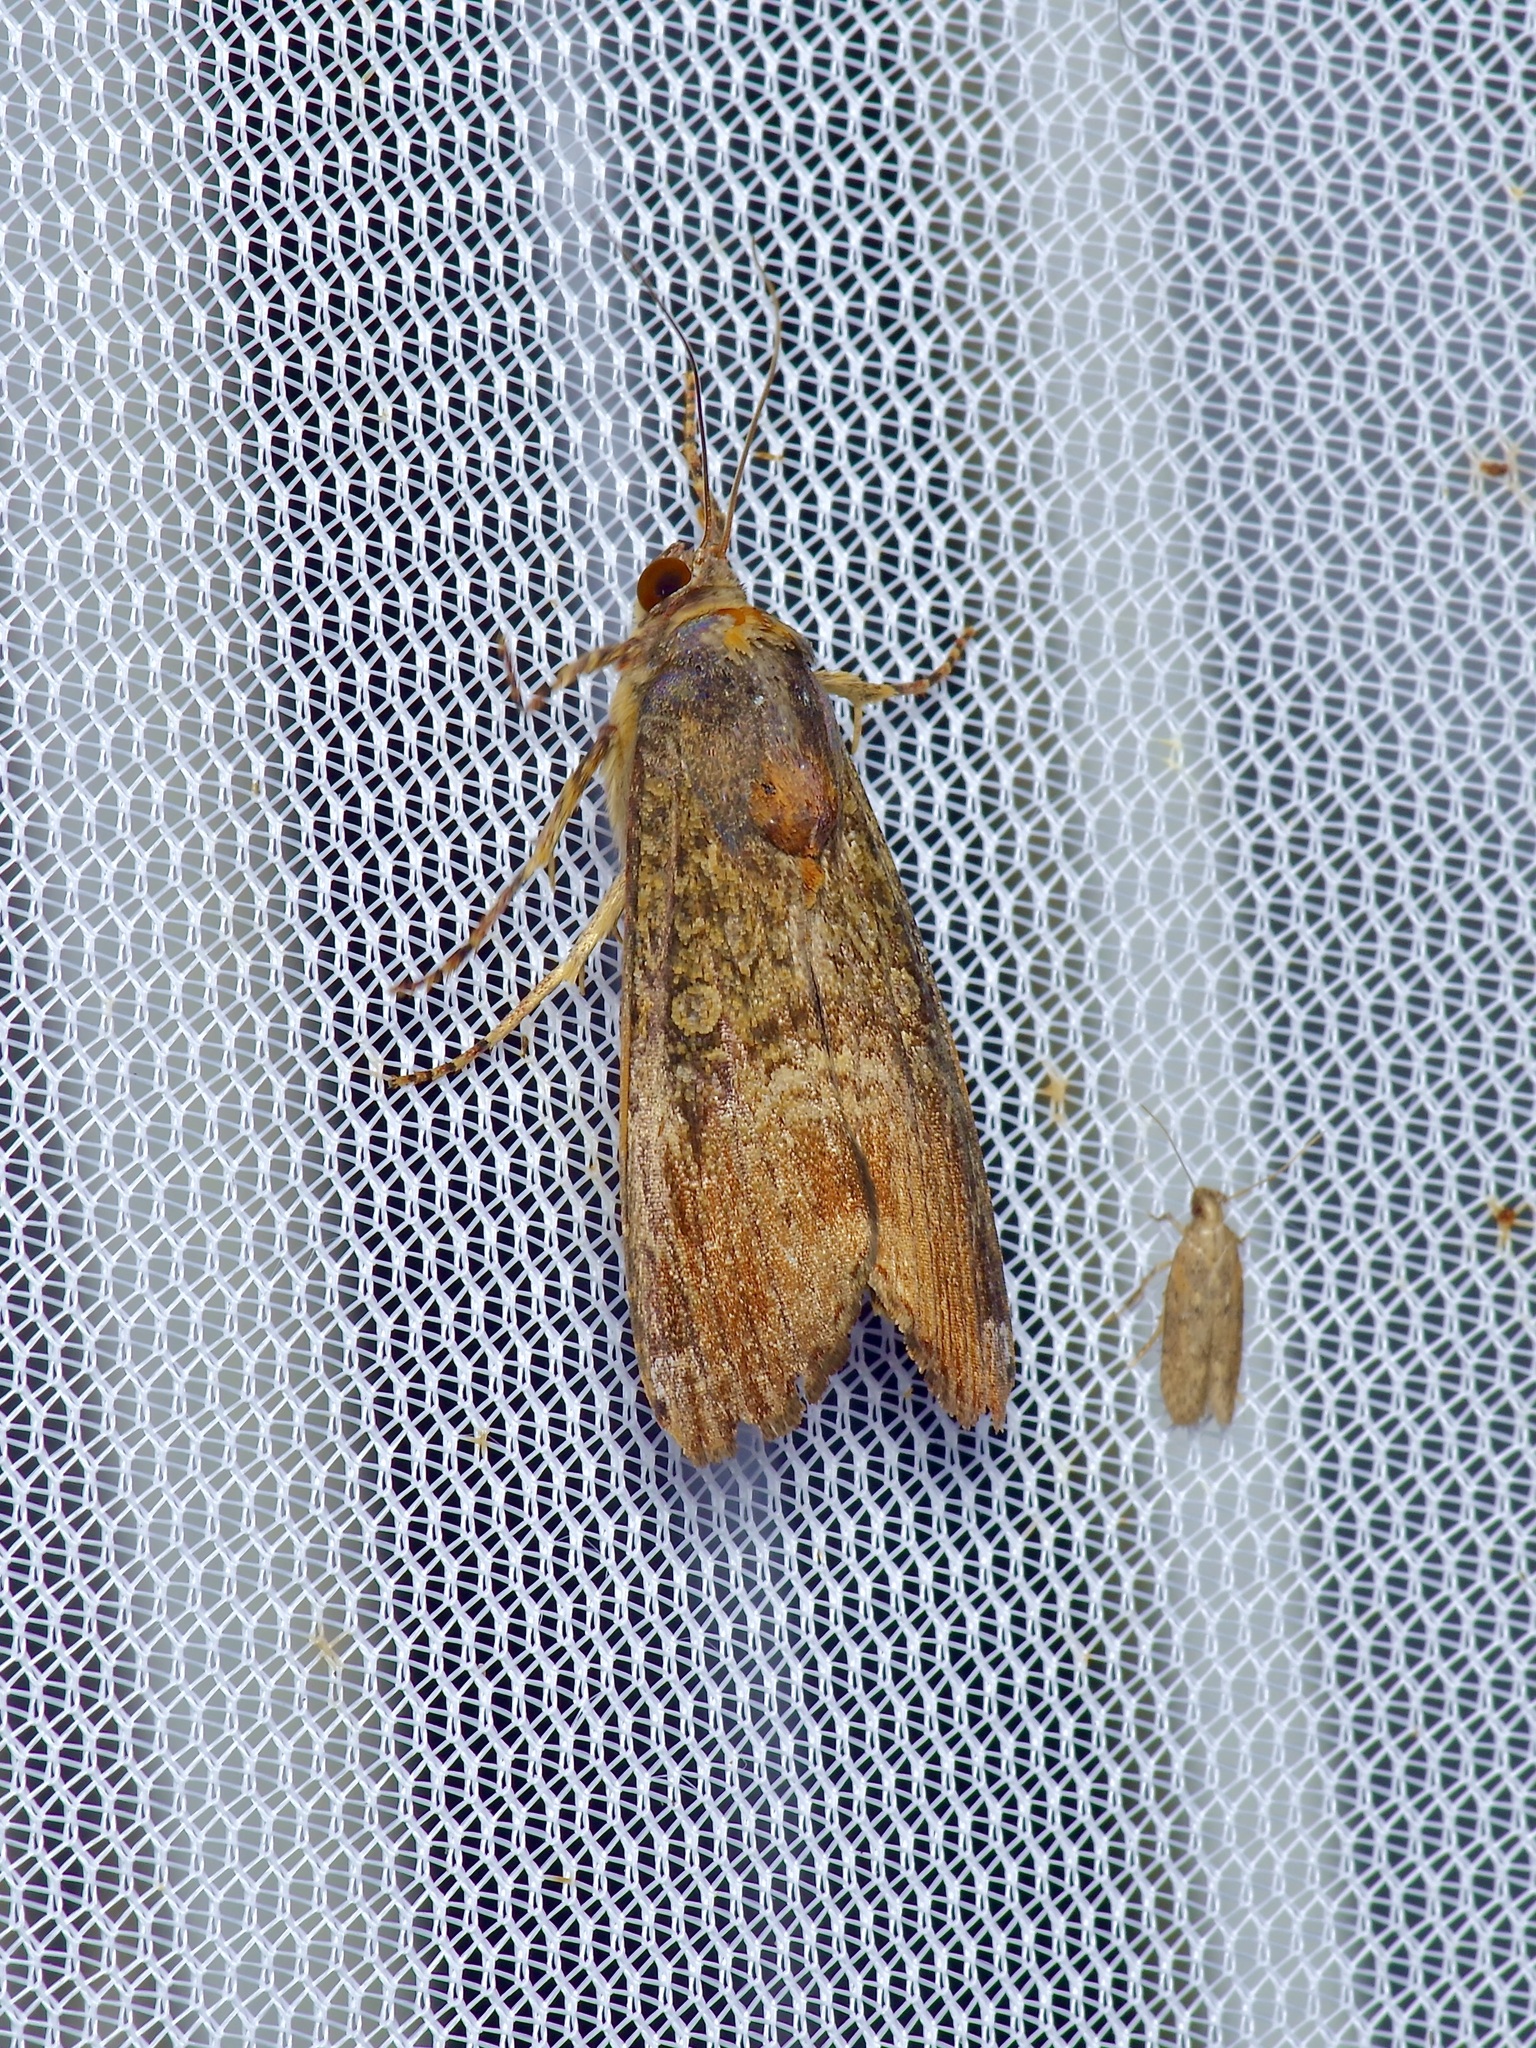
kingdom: Animalia
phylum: Arthropoda
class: Insecta
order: Lepidoptera
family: Noctuidae
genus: Magusa
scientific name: Magusa divaricata
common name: Orb narrow-winged moth
